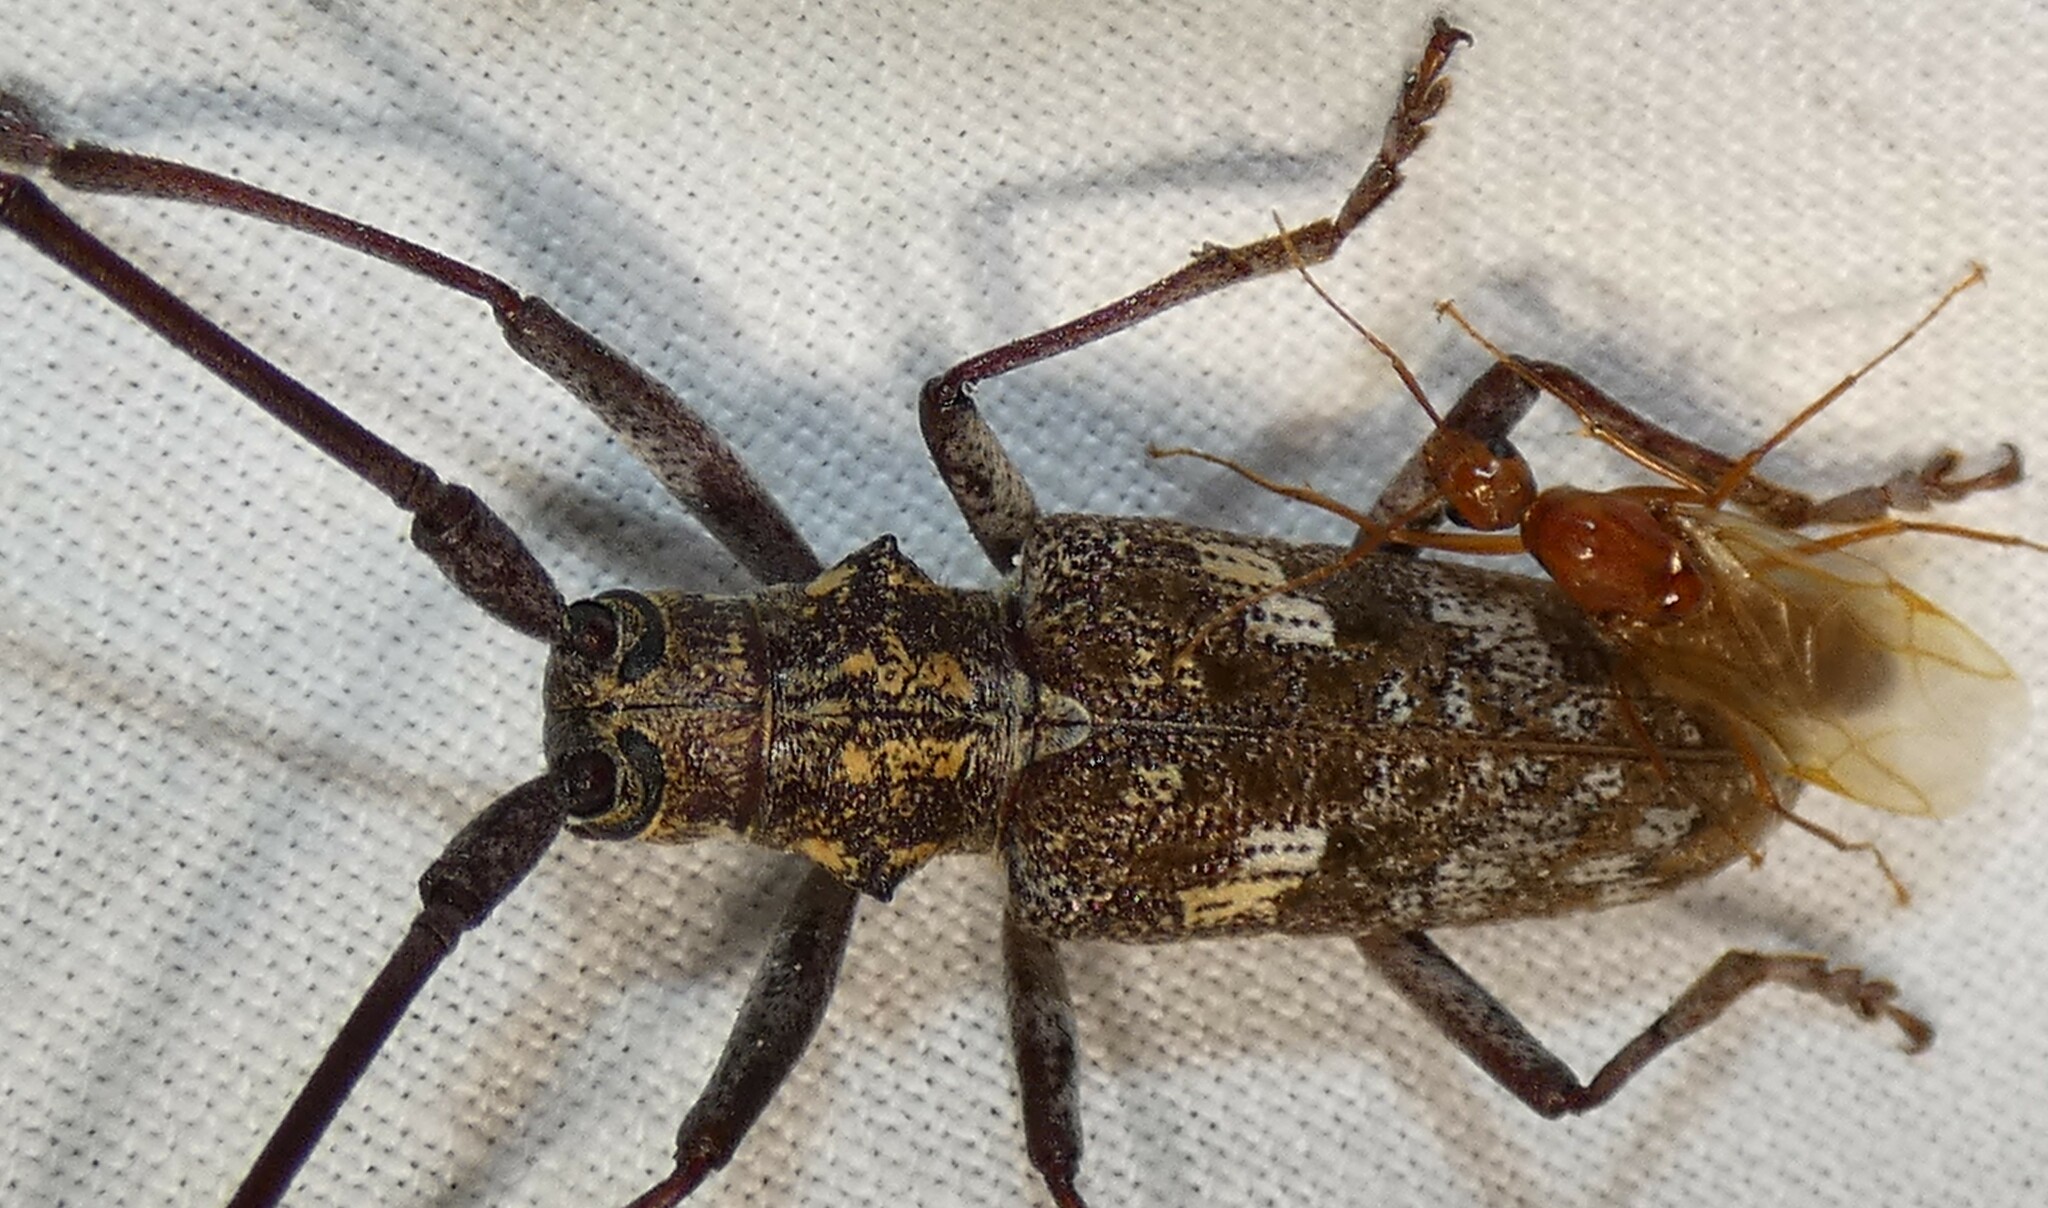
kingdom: Animalia
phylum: Arthropoda
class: Insecta
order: Coleoptera
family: Cerambycidae
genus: Monochamus
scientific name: Monochamus carolinensis
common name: Carolina pine sawyer
